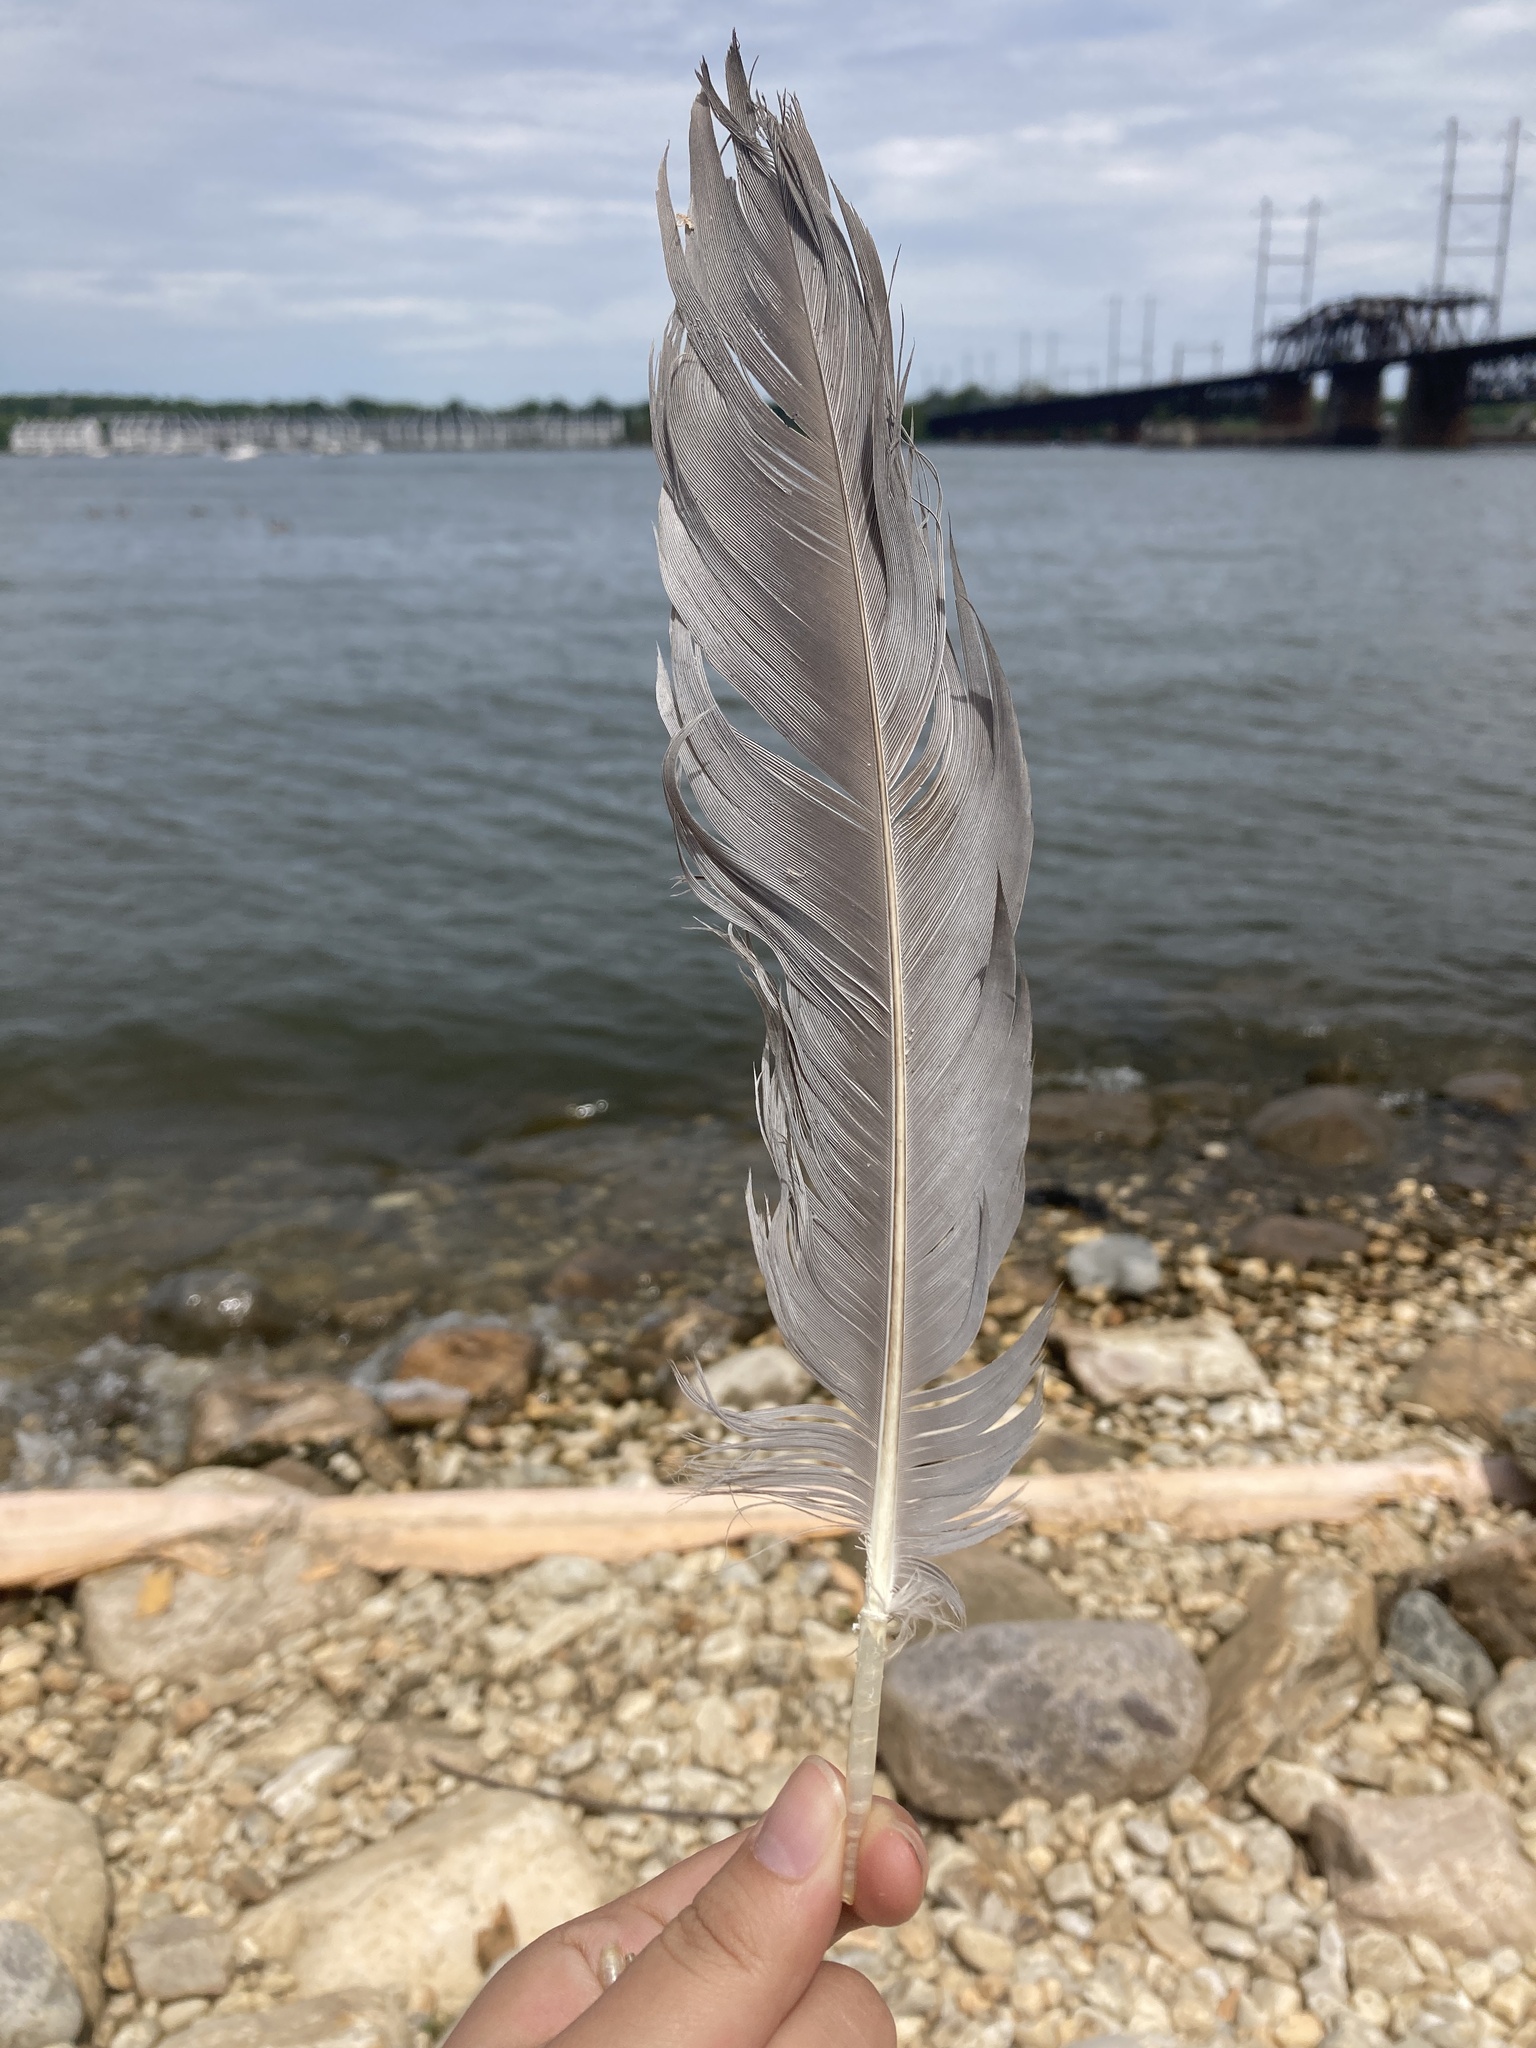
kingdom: Animalia
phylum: Chordata
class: Aves
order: Pelecaniformes
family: Ardeidae
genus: Ardea
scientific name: Ardea herodias
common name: Great blue heron
